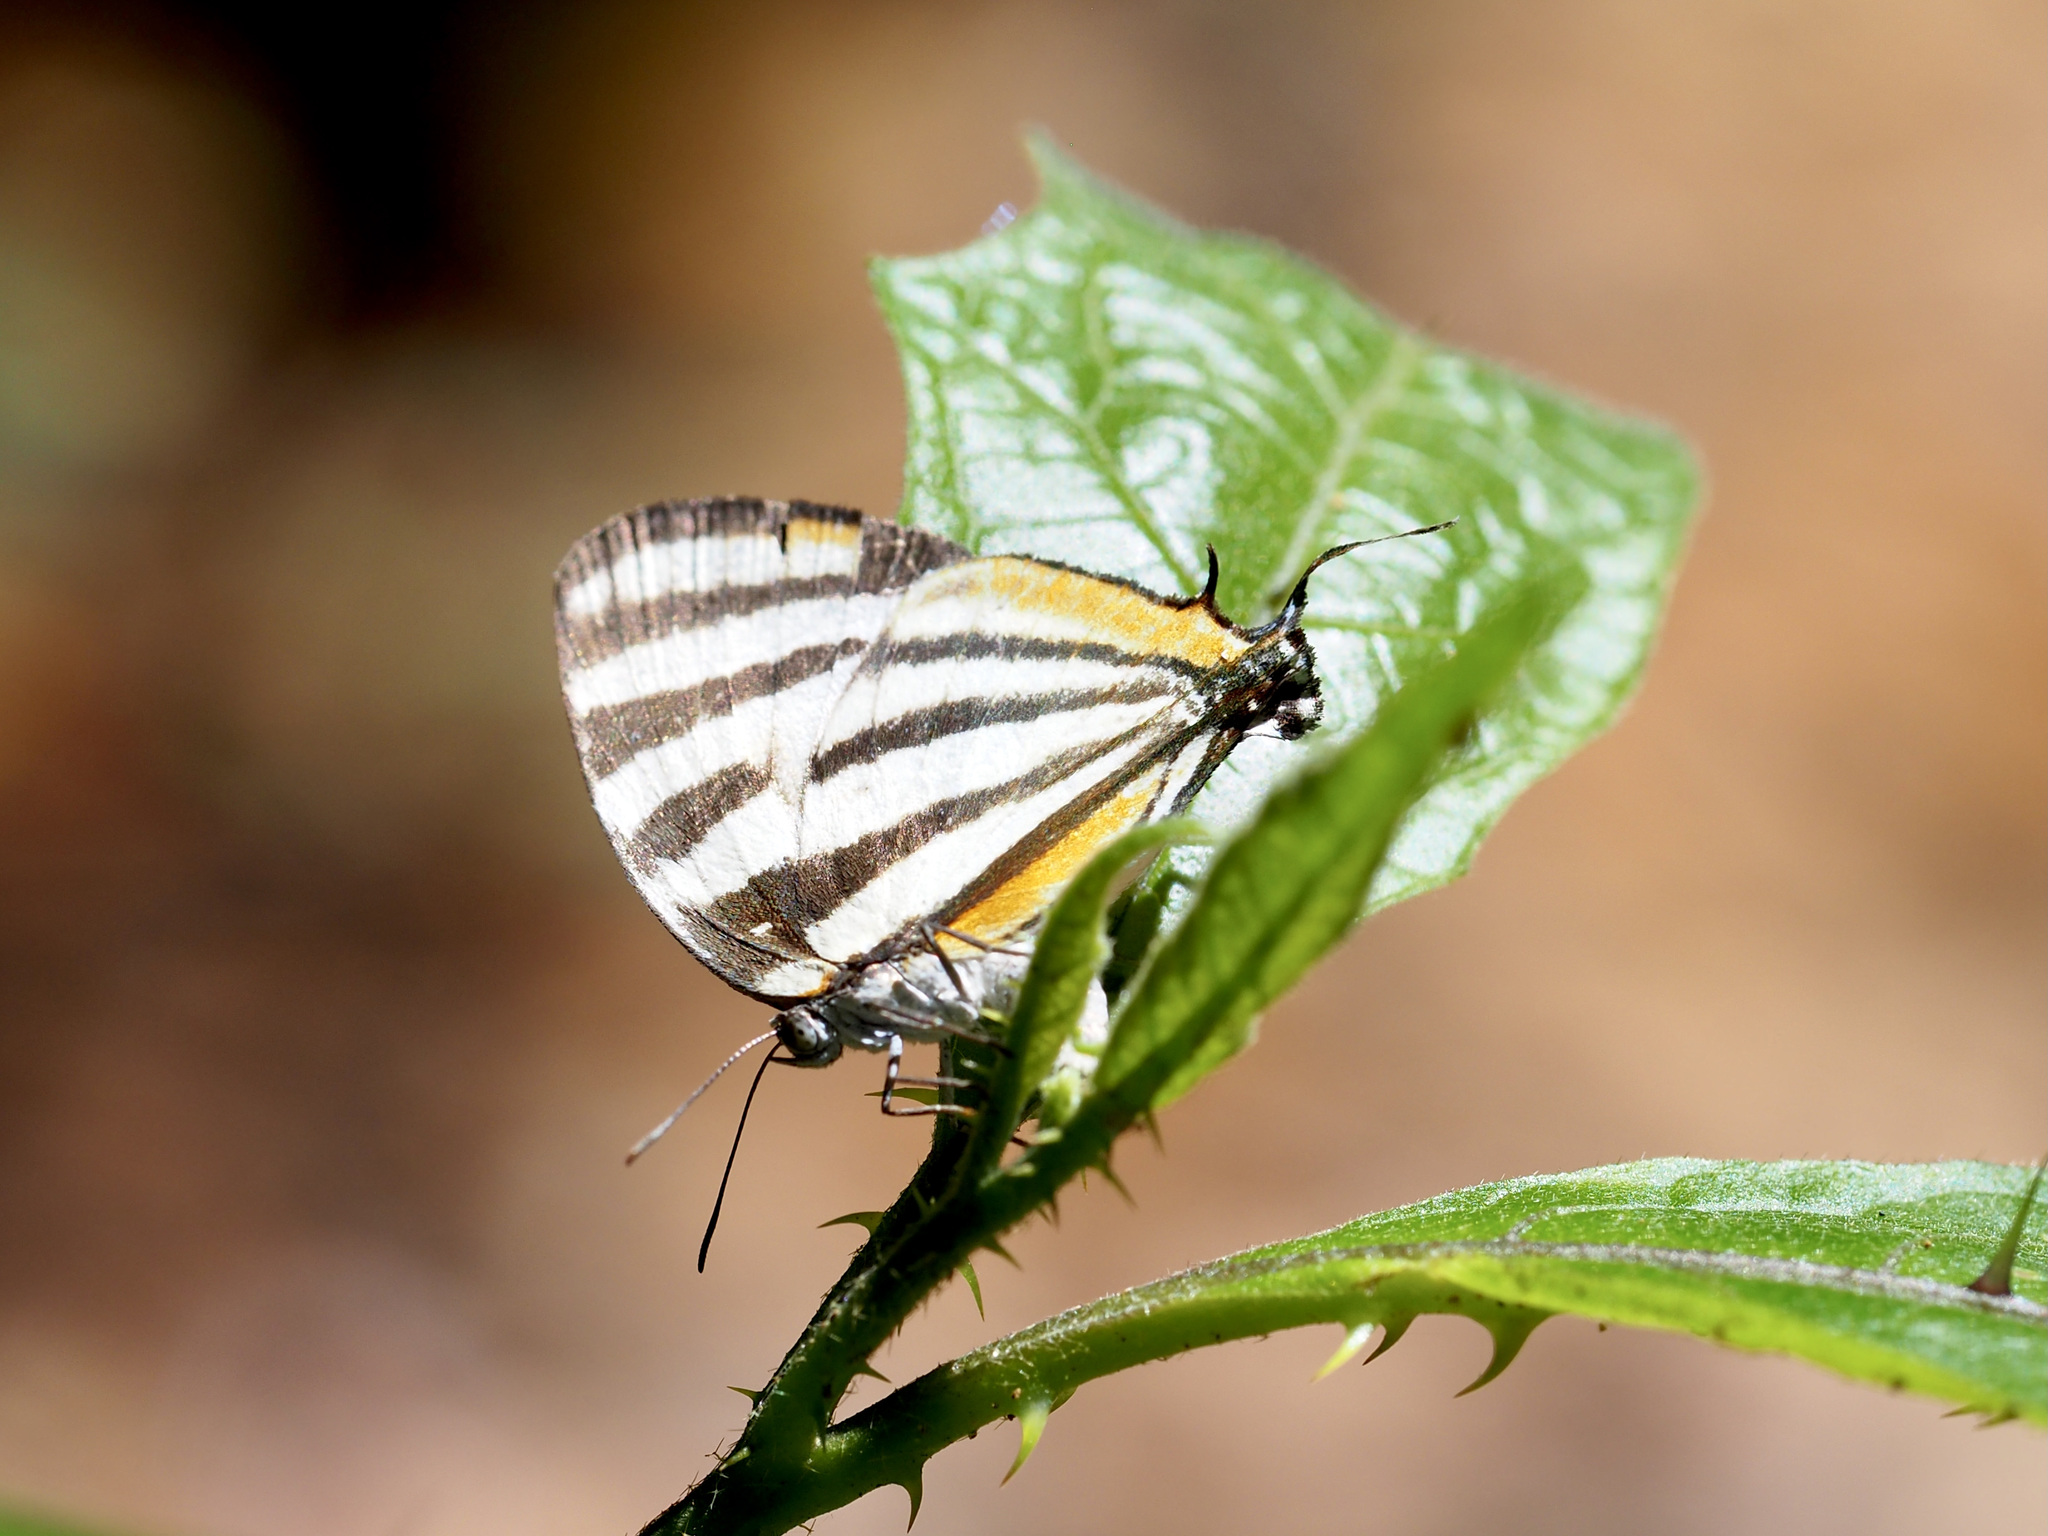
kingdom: Animalia
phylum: Arthropoda
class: Insecta
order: Lepidoptera
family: Lycaenidae
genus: Arawacus
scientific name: Arawacus togarna
